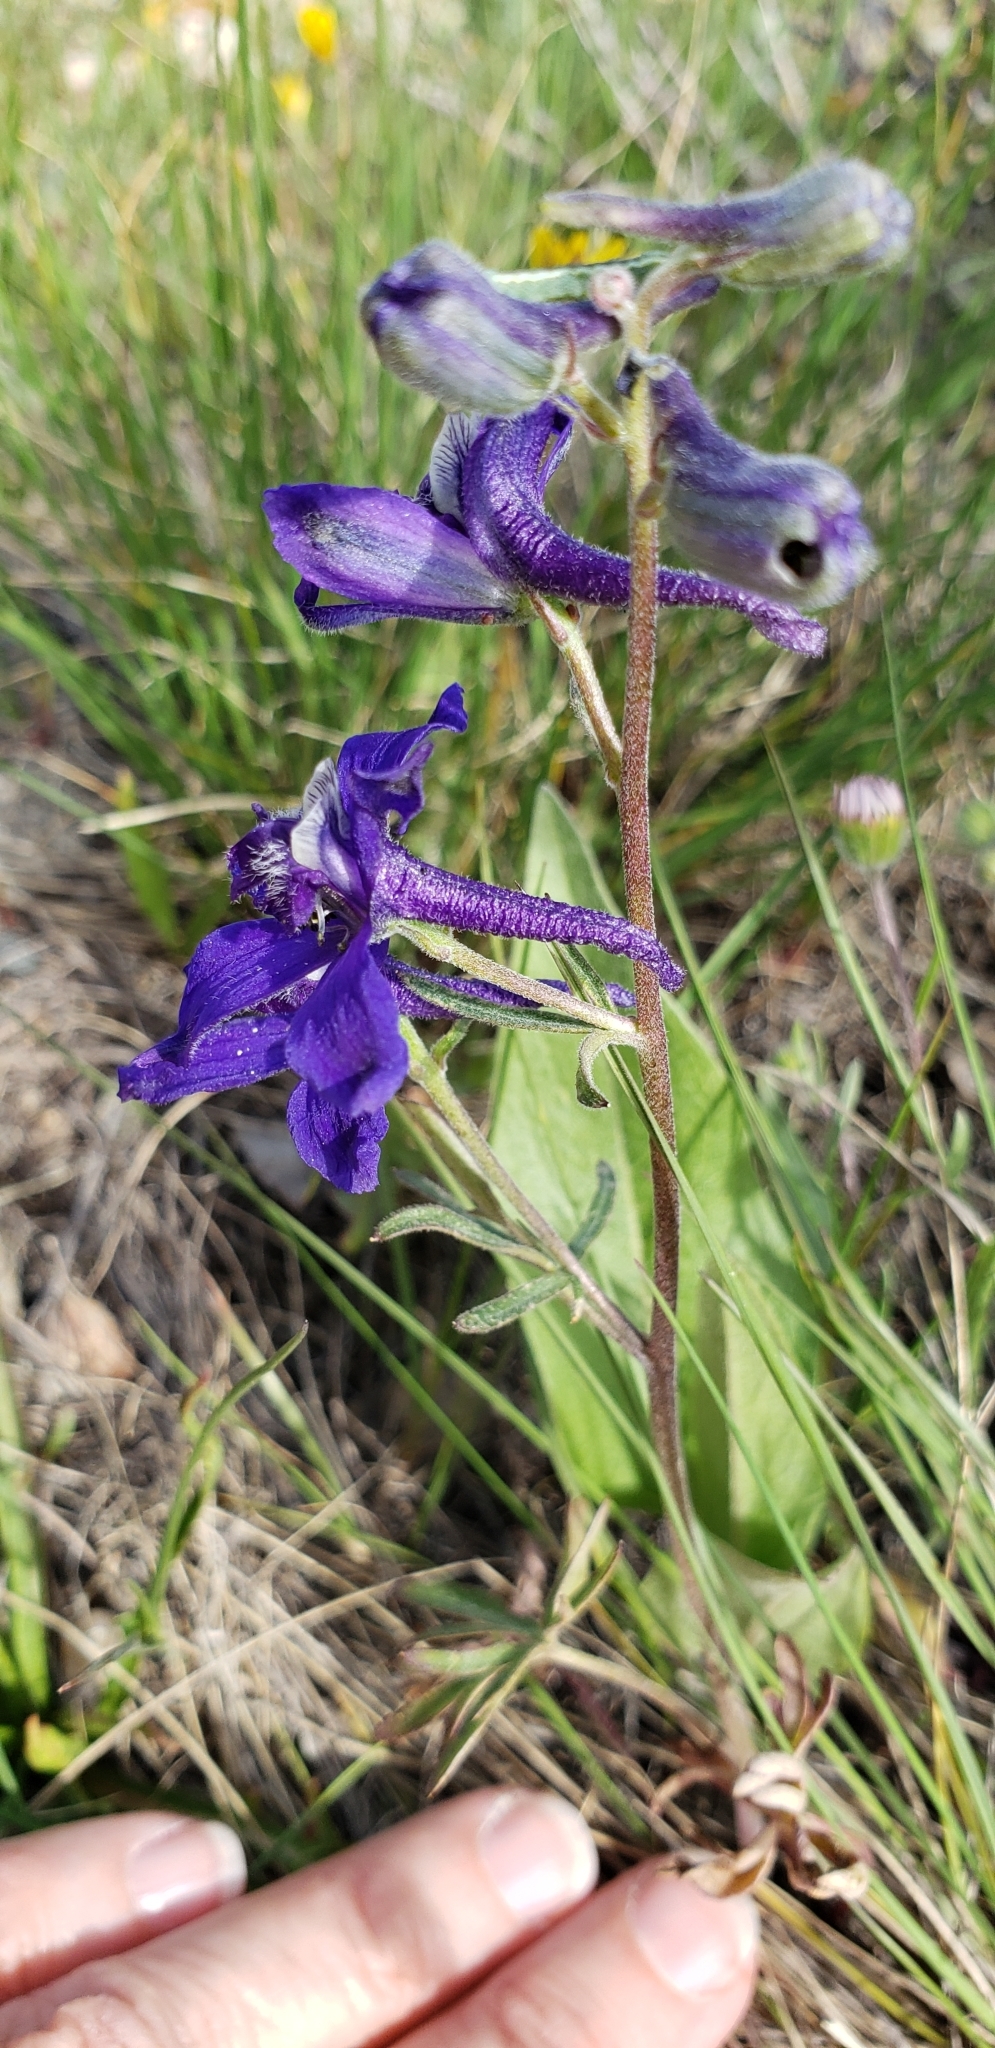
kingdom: Plantae
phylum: Tracheophyta
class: Magnoliopsida
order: Ranunculales
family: Ranunculaceae
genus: Delphinium
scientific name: Delphinium nuttallianum
